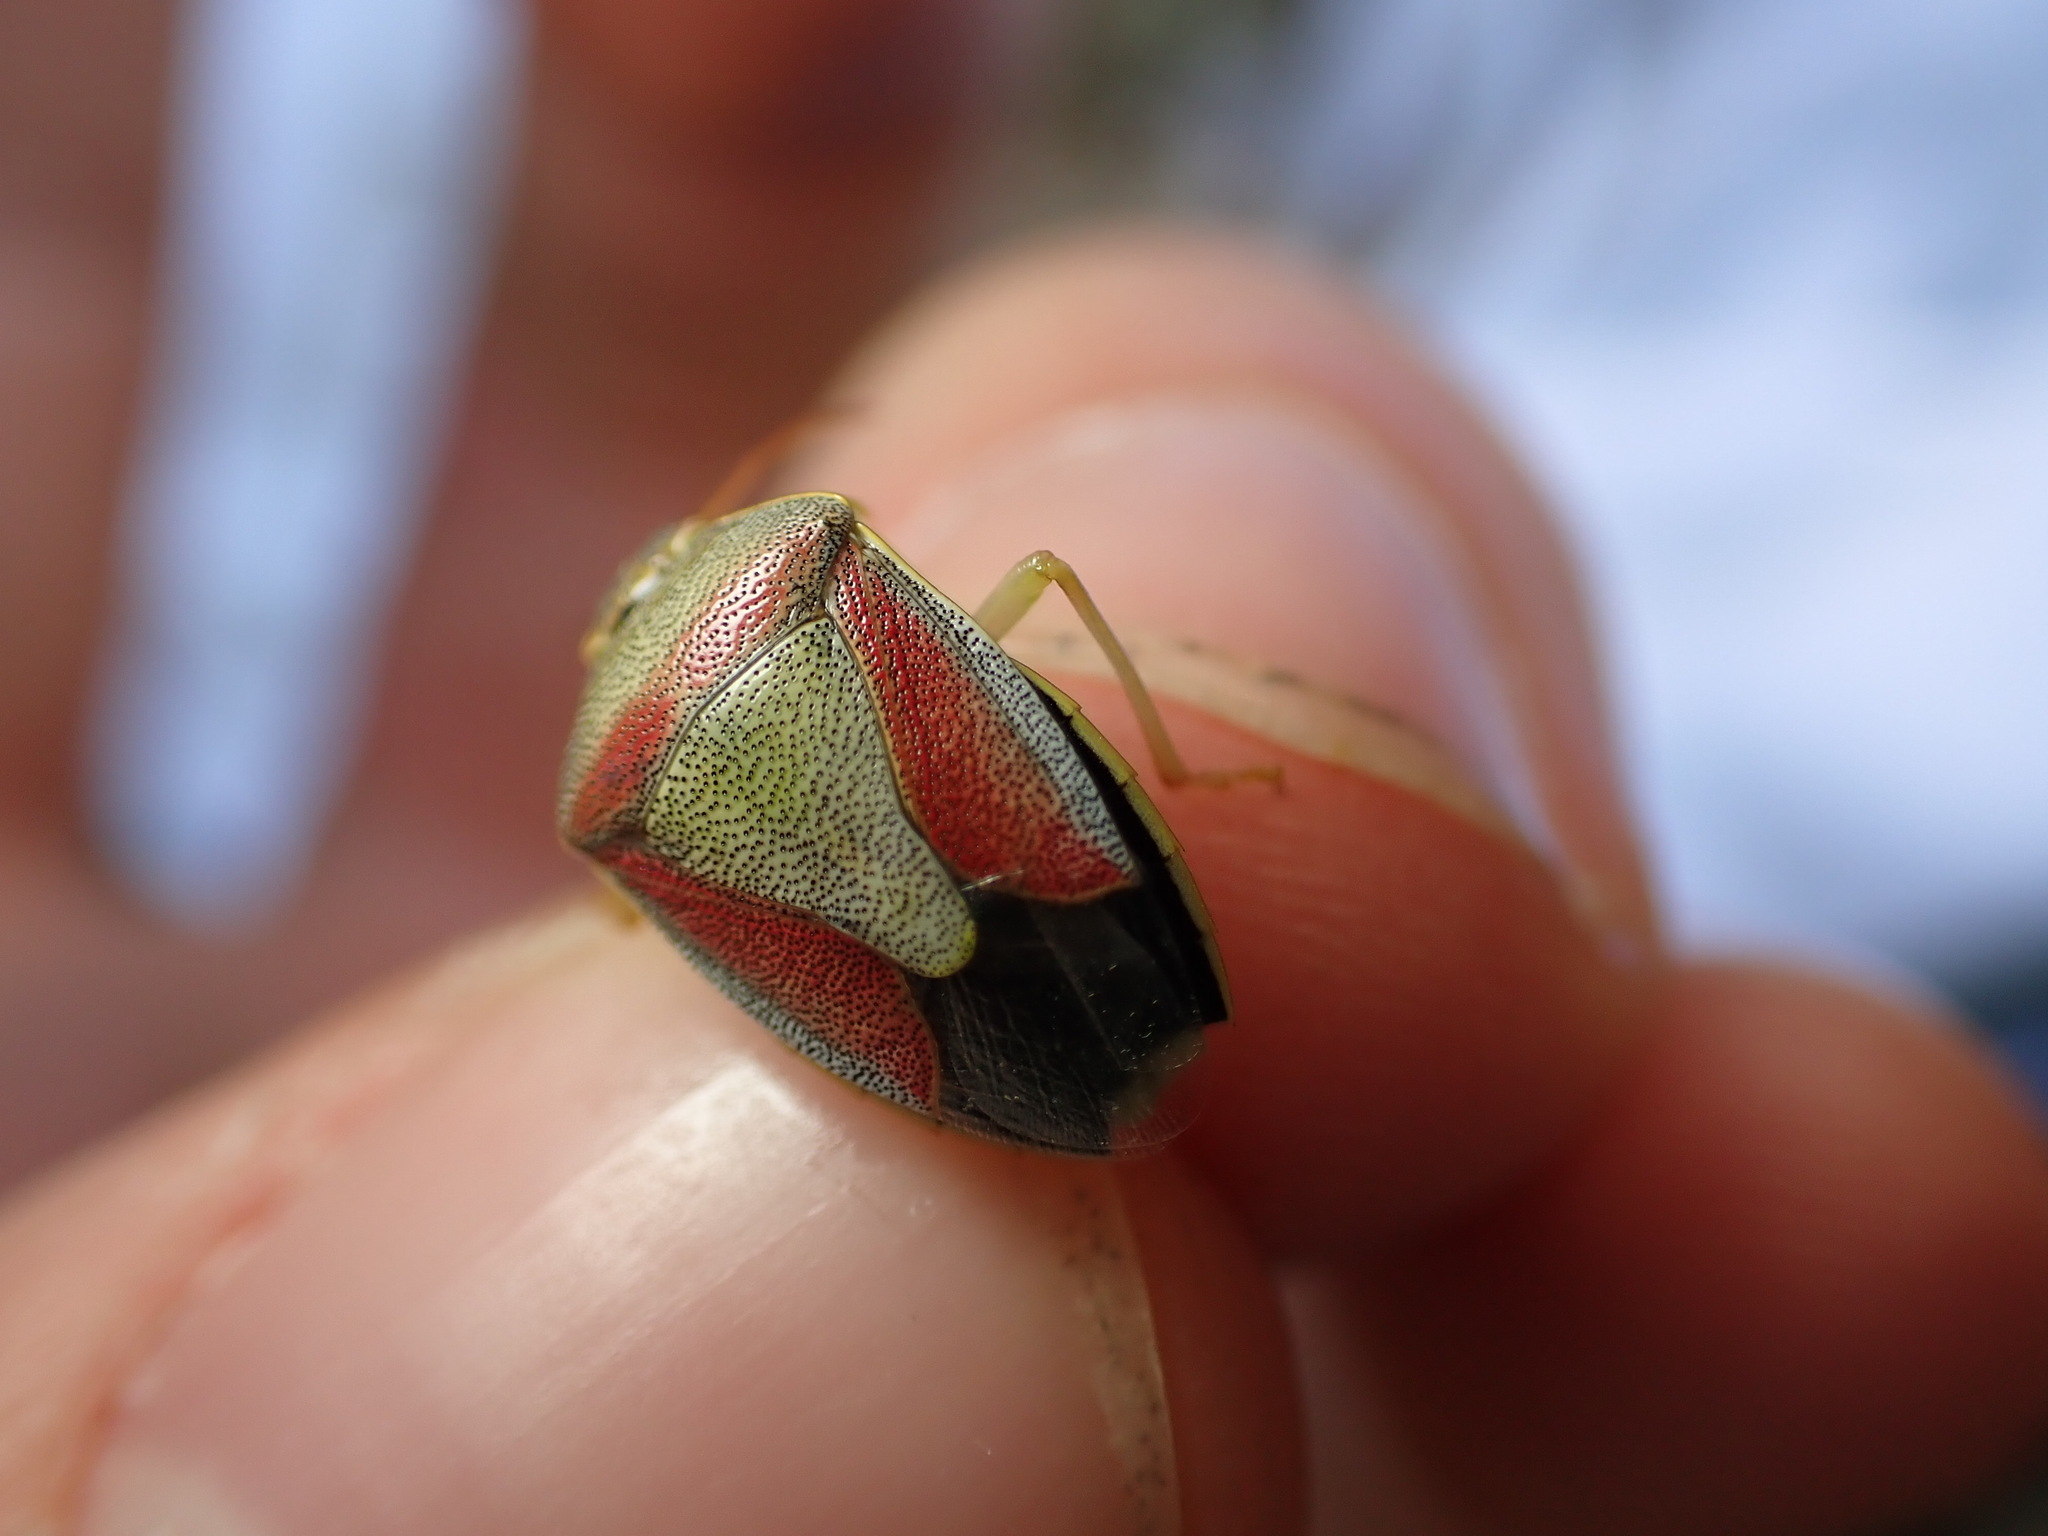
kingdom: Animalia
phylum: Arthropoda
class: Insecta
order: Hemiptera
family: Pentatomidae
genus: Piezodorus
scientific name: Piezodorus lituratus
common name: Stink bug
